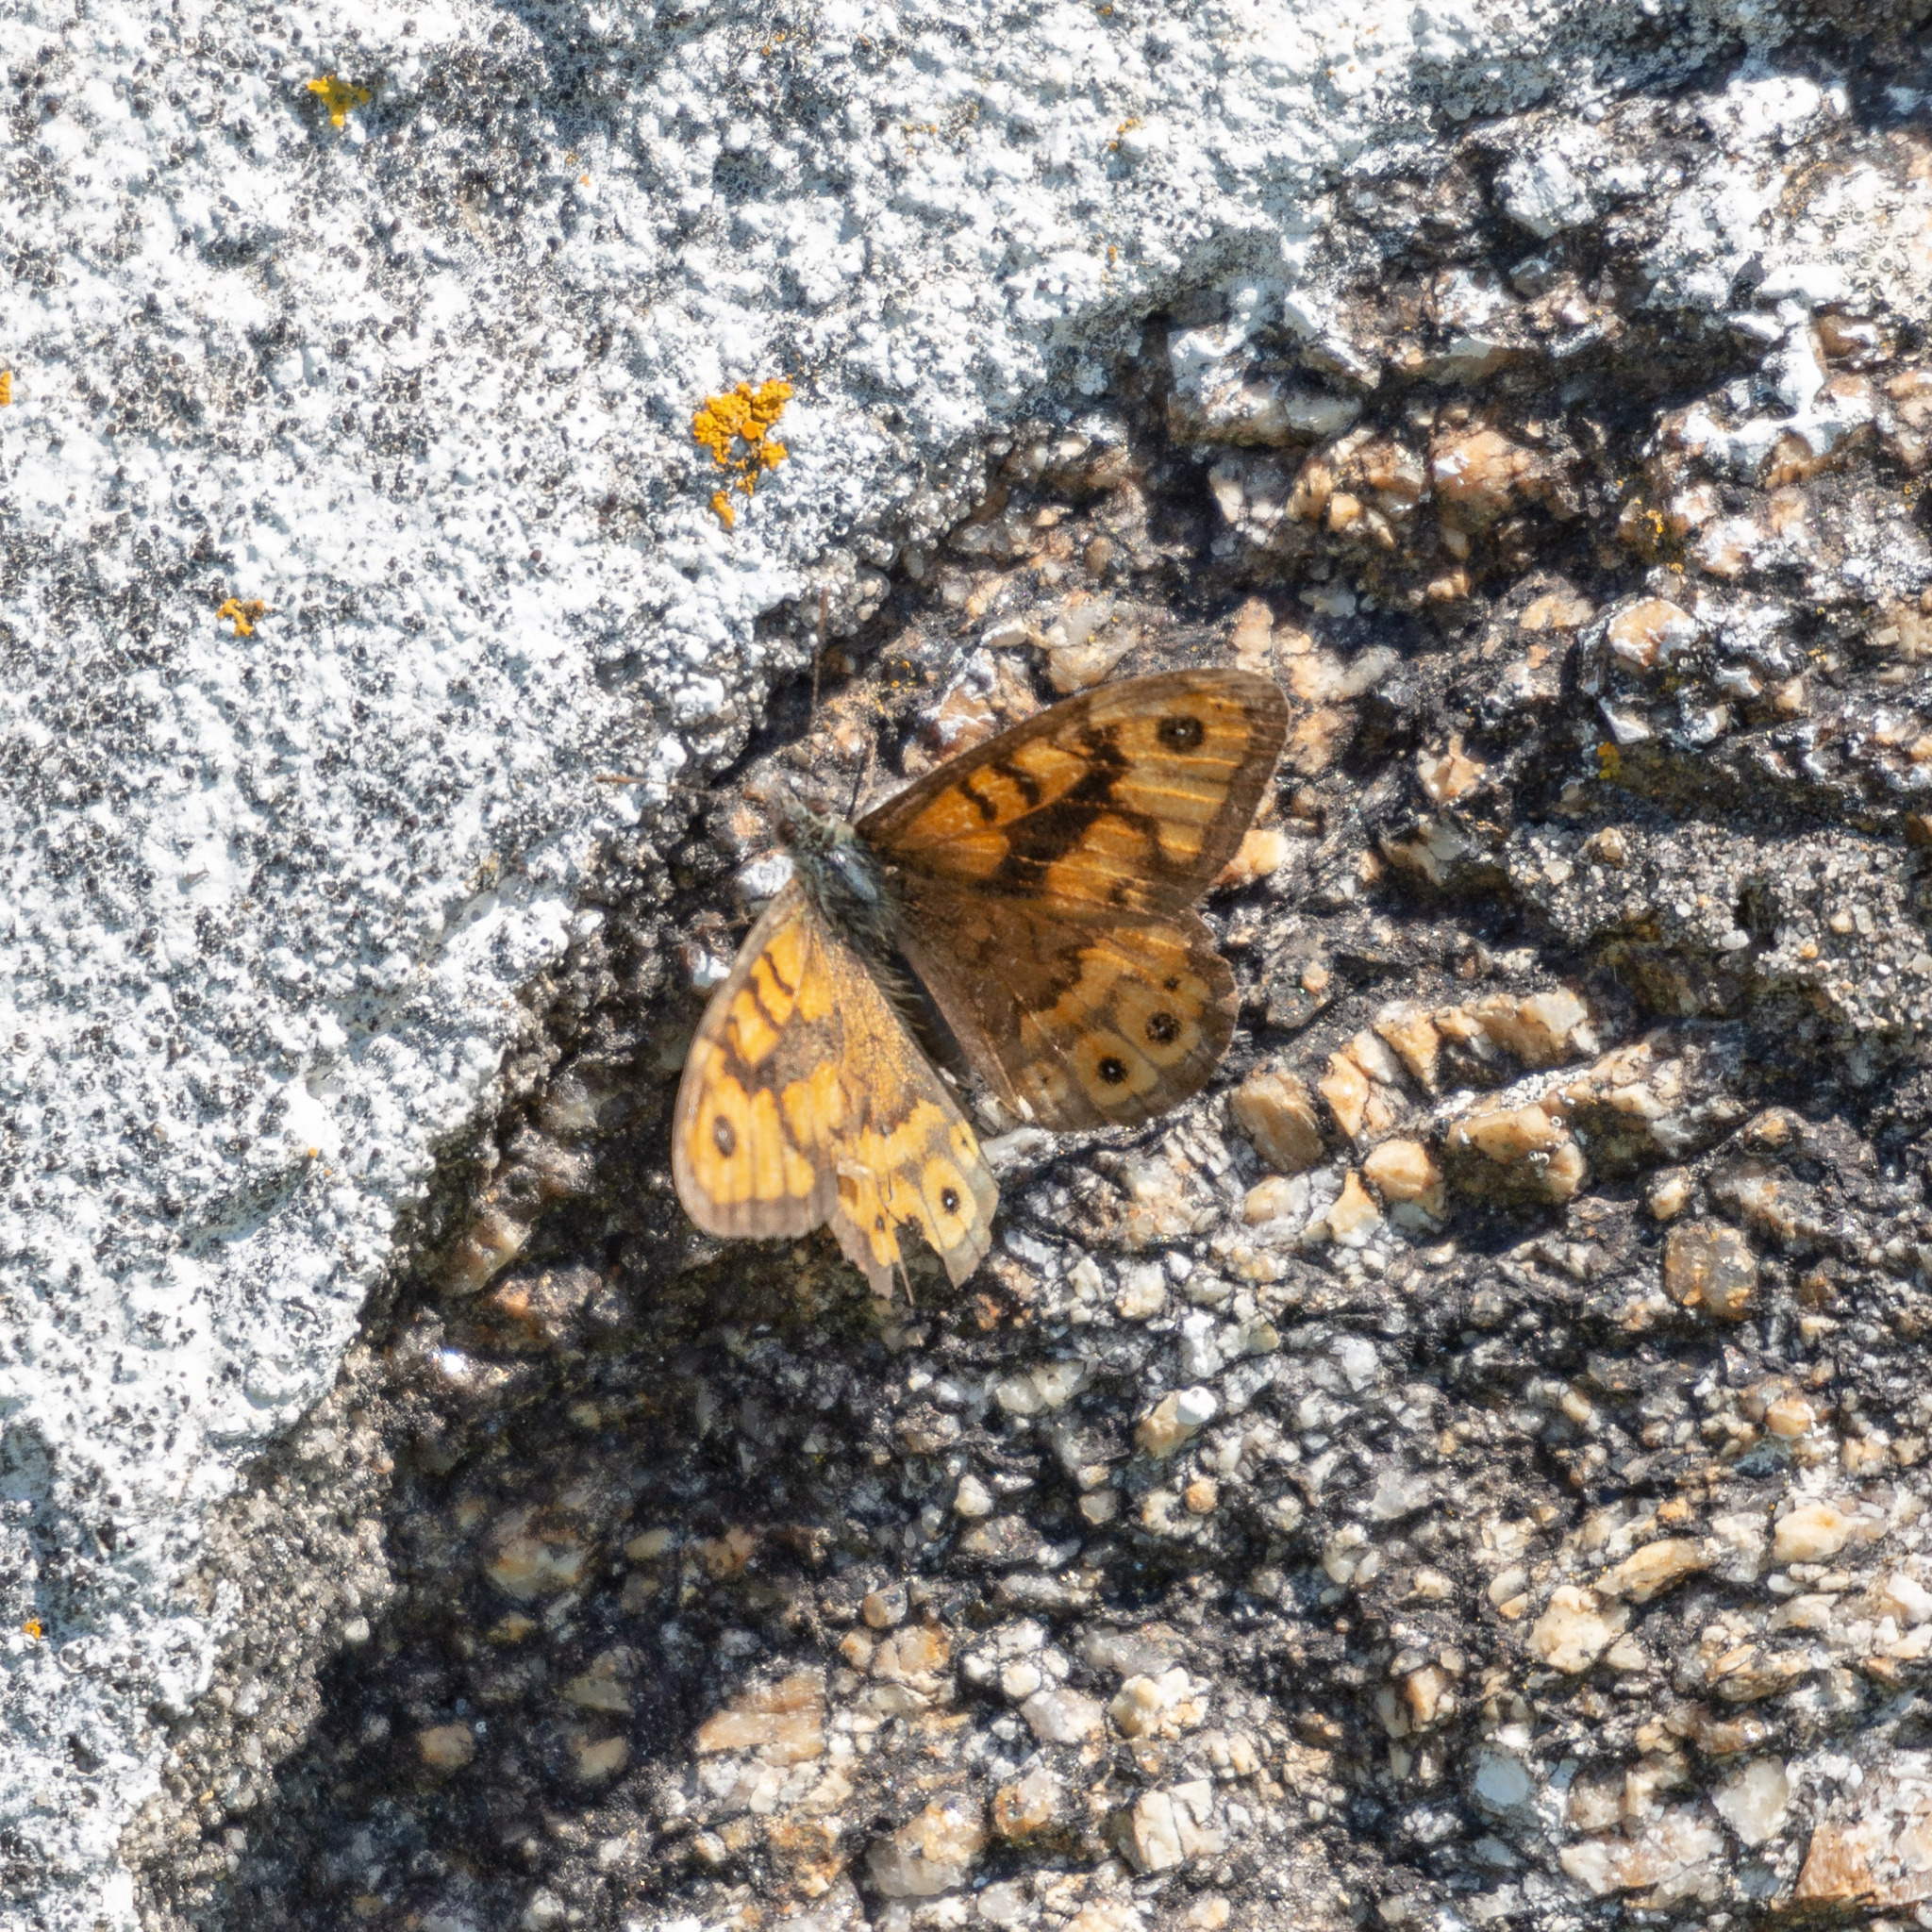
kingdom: Animalia
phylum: Arthropoda
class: Insecta
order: Lepidoptera
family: Nymphalidae
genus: Pararge
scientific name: Pararge Lasiommata megera
